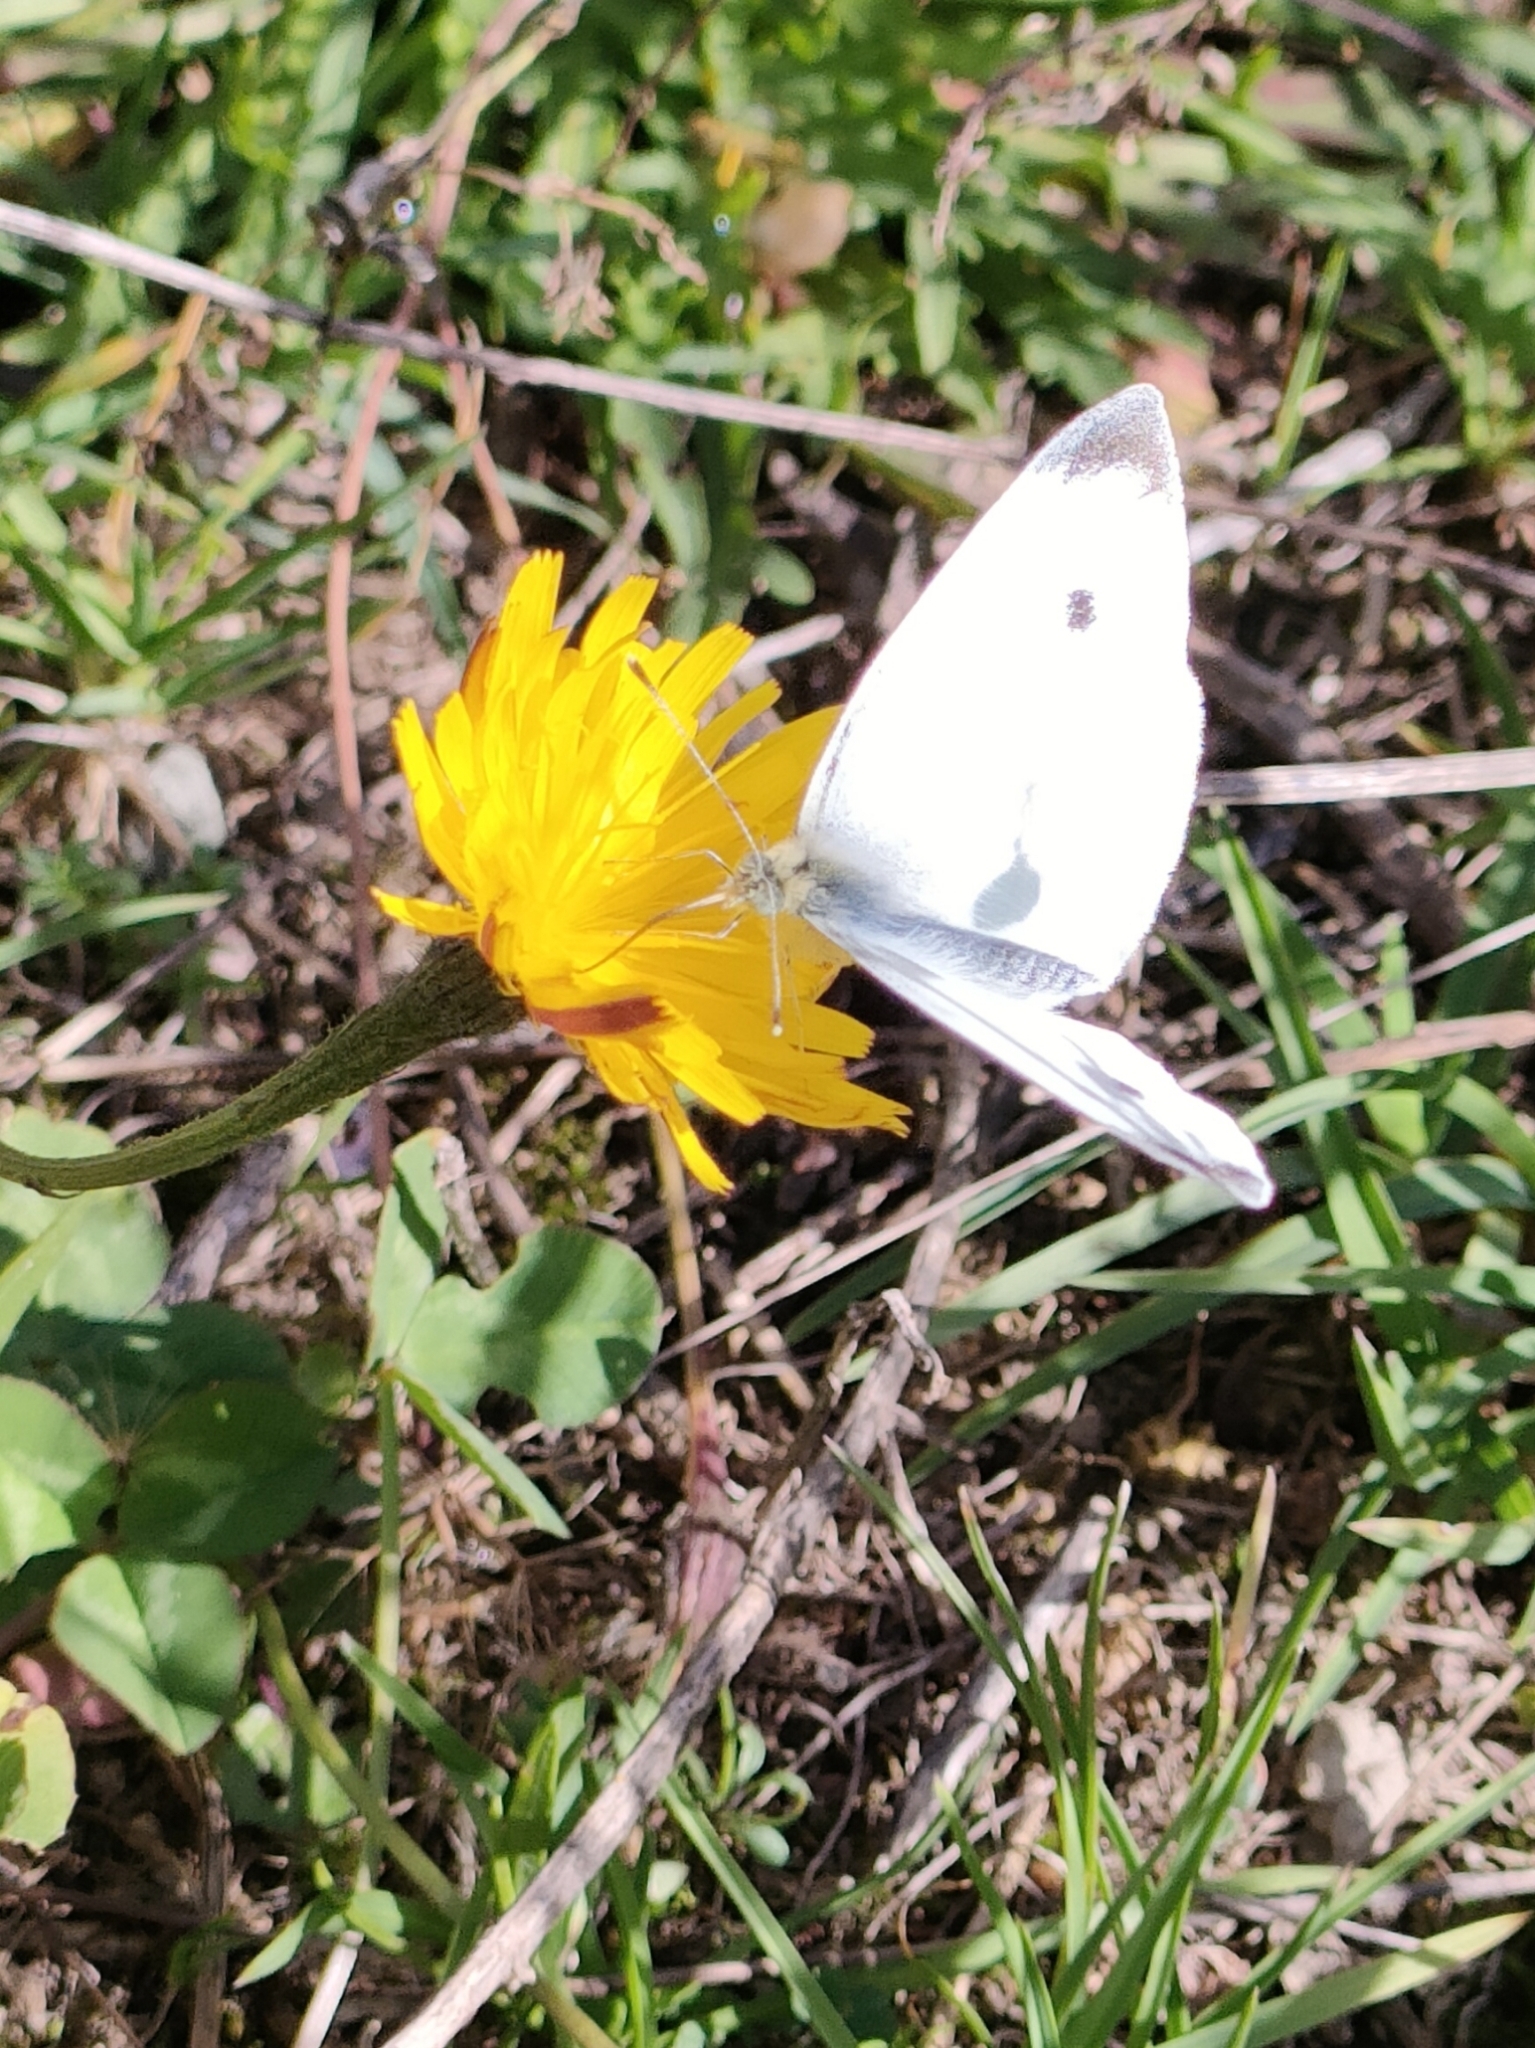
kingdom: Animalia
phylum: Arthropoda
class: Insecta
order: Lepidoptera
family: Pieridae
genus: Pieris
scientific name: Pieris rapae
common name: Small white
